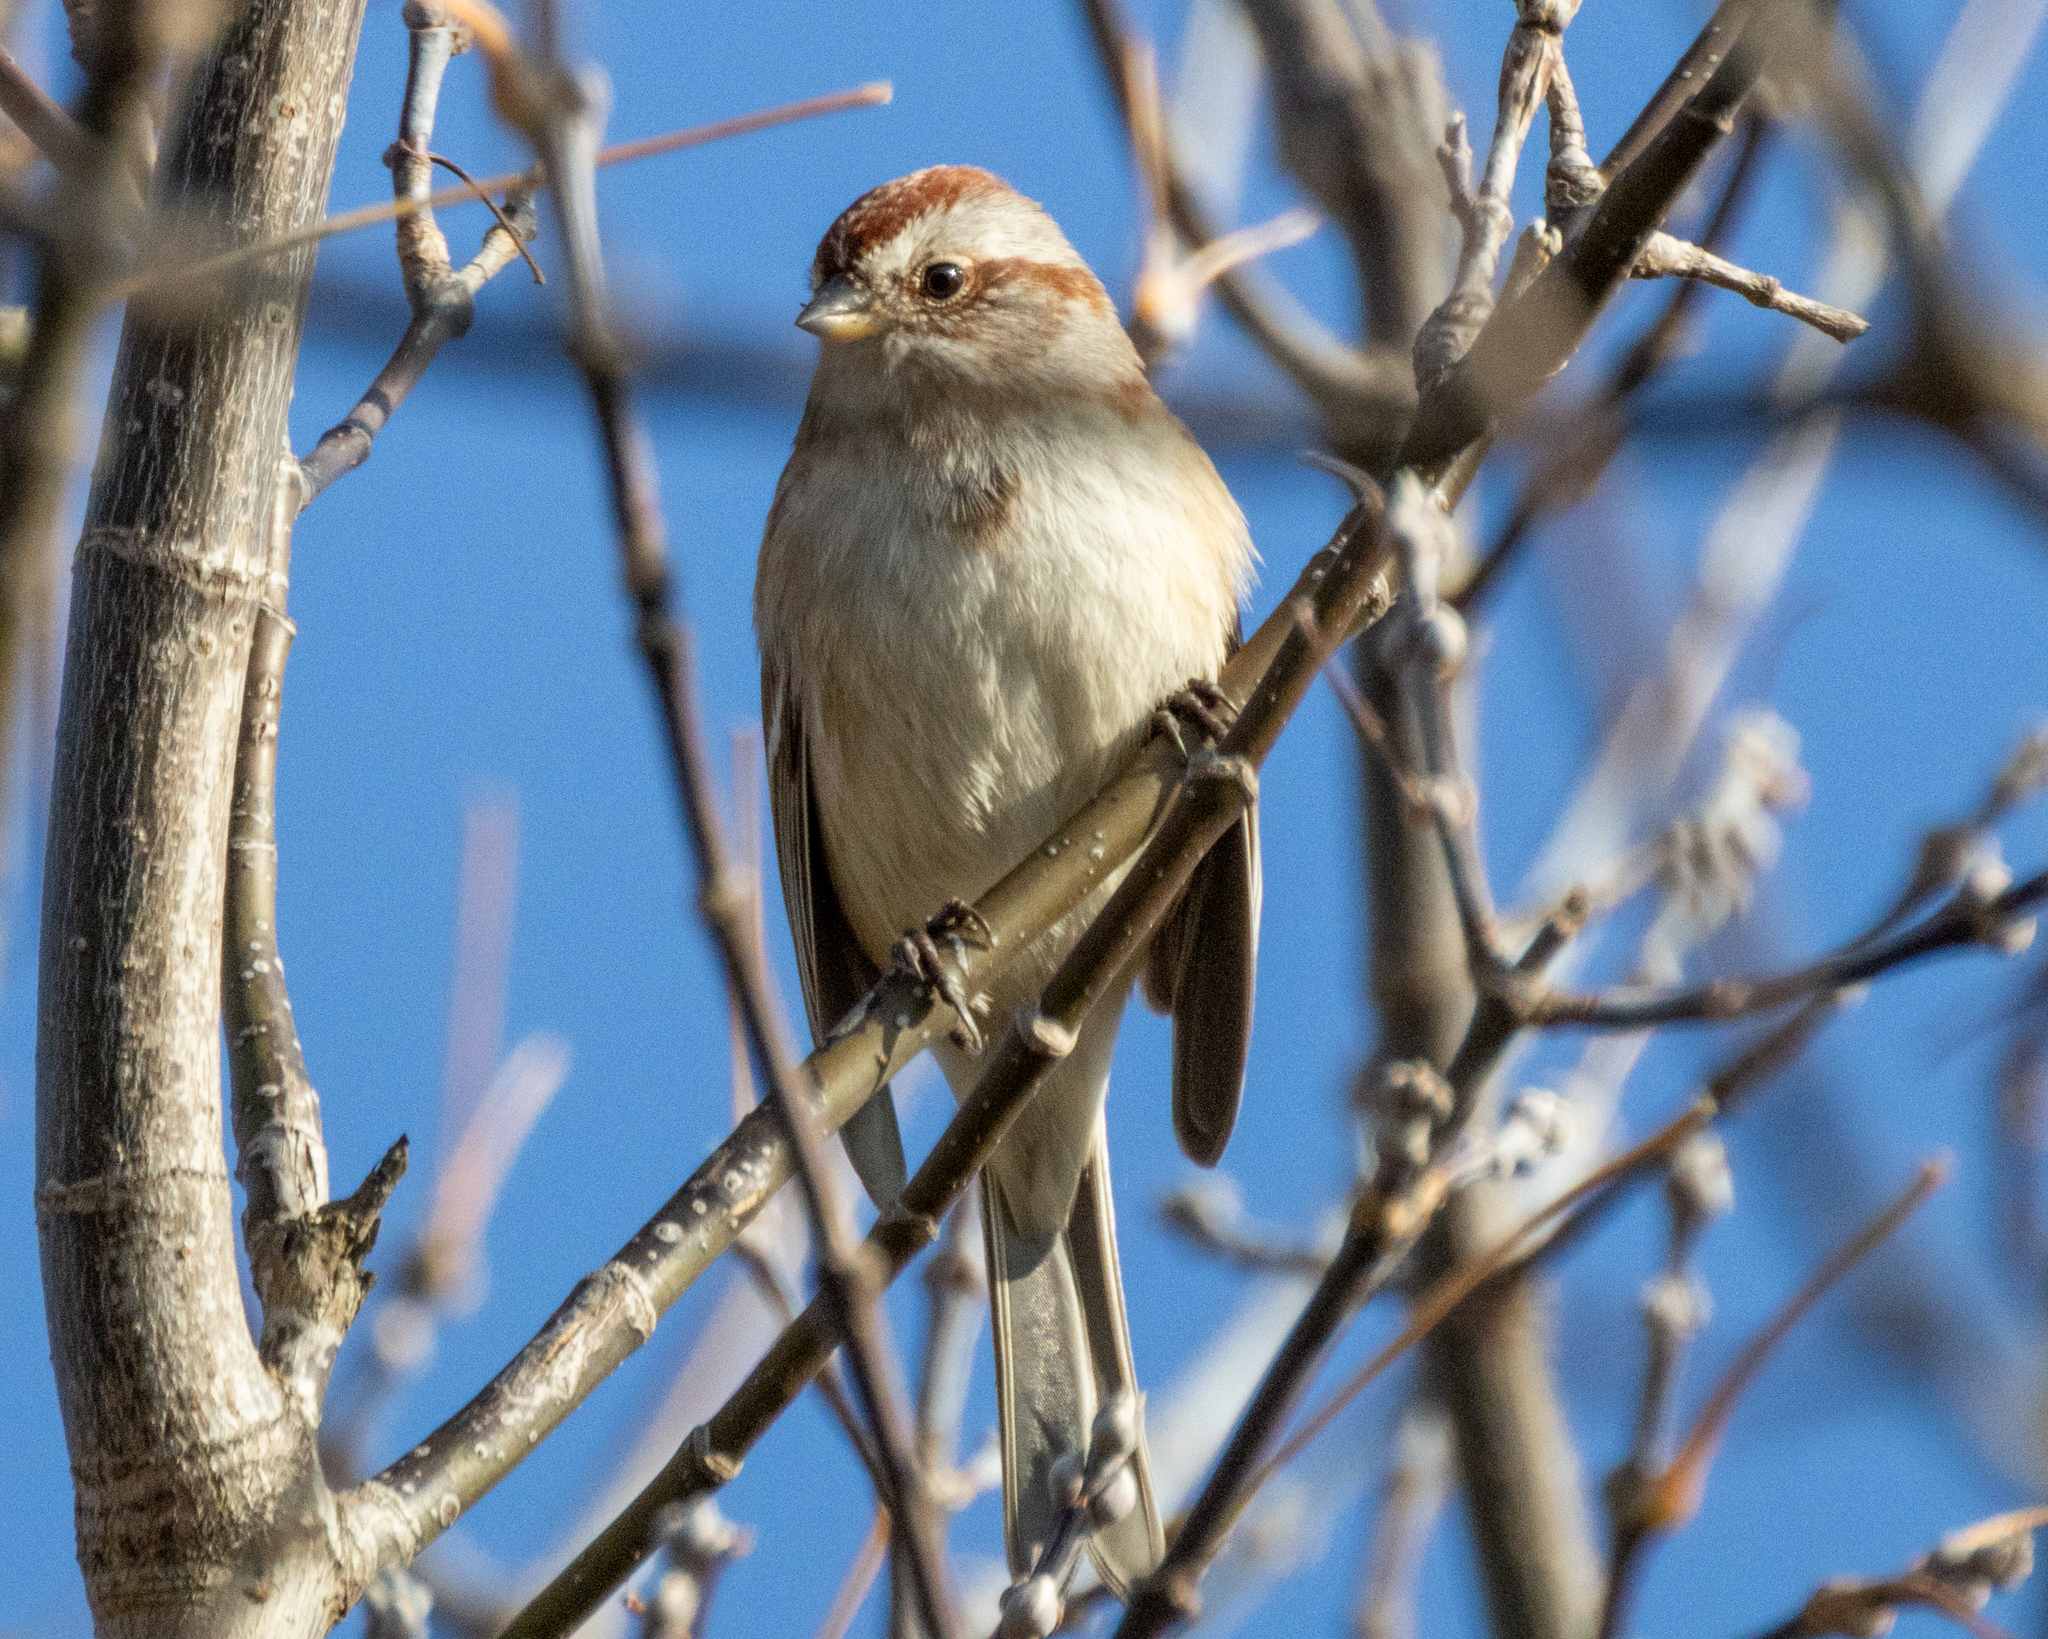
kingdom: Animalia
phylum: Chordata
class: Aves
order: Passeriformes
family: Passerellidae
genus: Spizelloides
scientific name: Spizelloides arborea
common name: American tree sparrow
